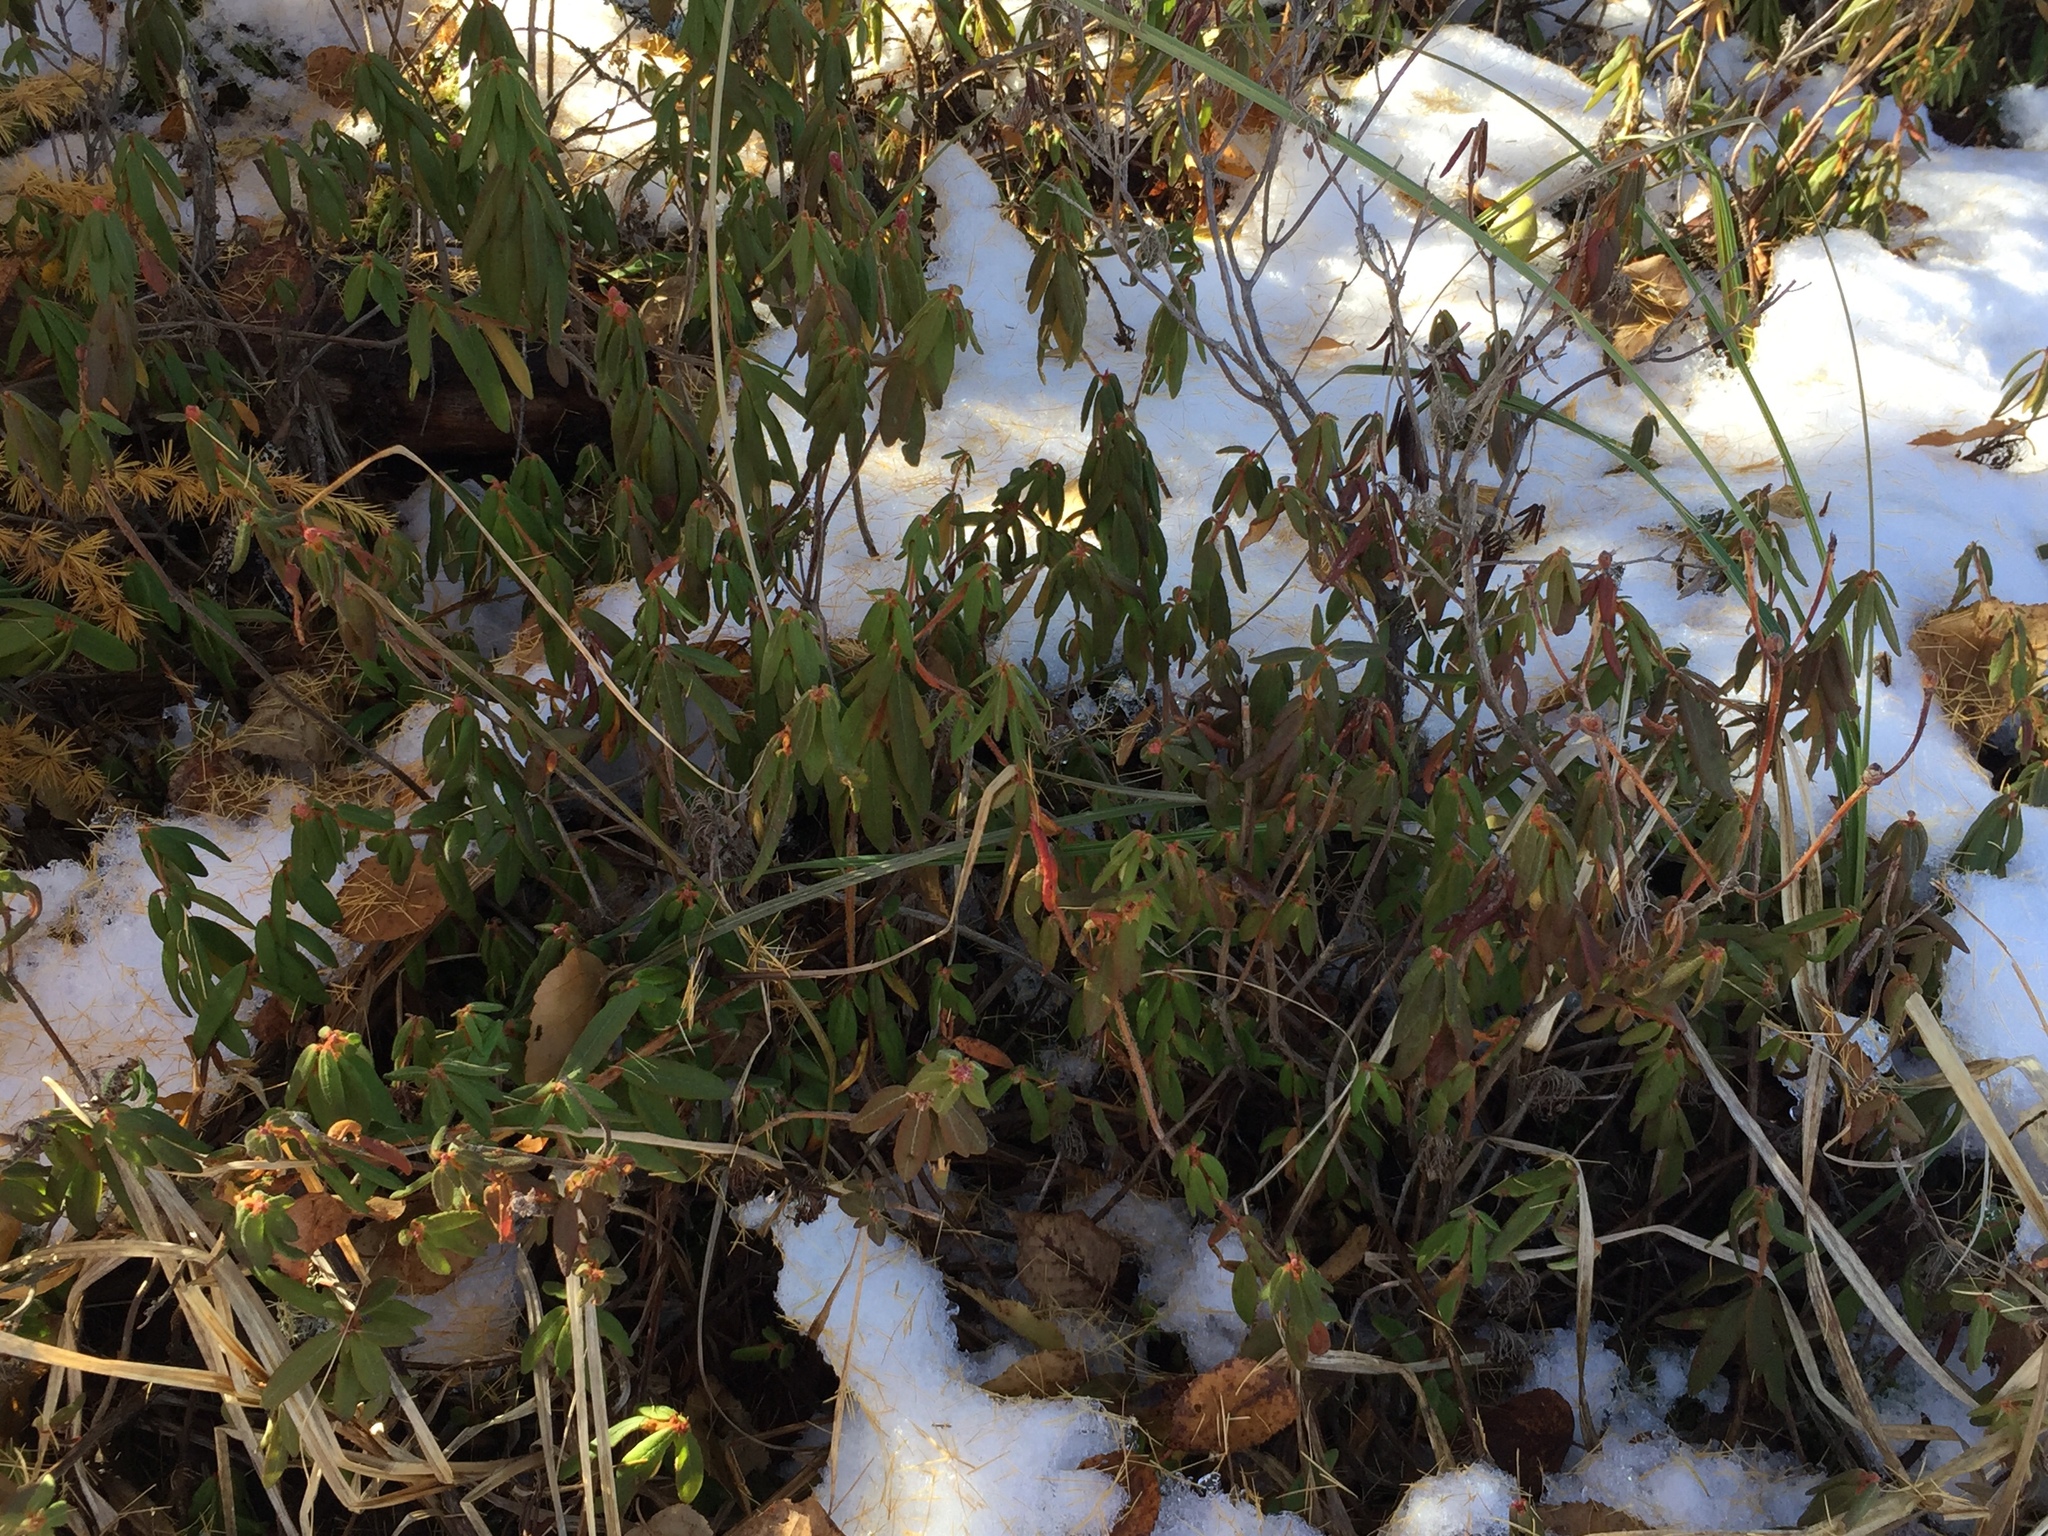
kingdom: Plantae
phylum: Tracheophyta
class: Magnoliopsida
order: Ericales
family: Ericaceae
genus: Rhododendron
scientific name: Rhododendron groenlandicum
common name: Bog labrador tea
